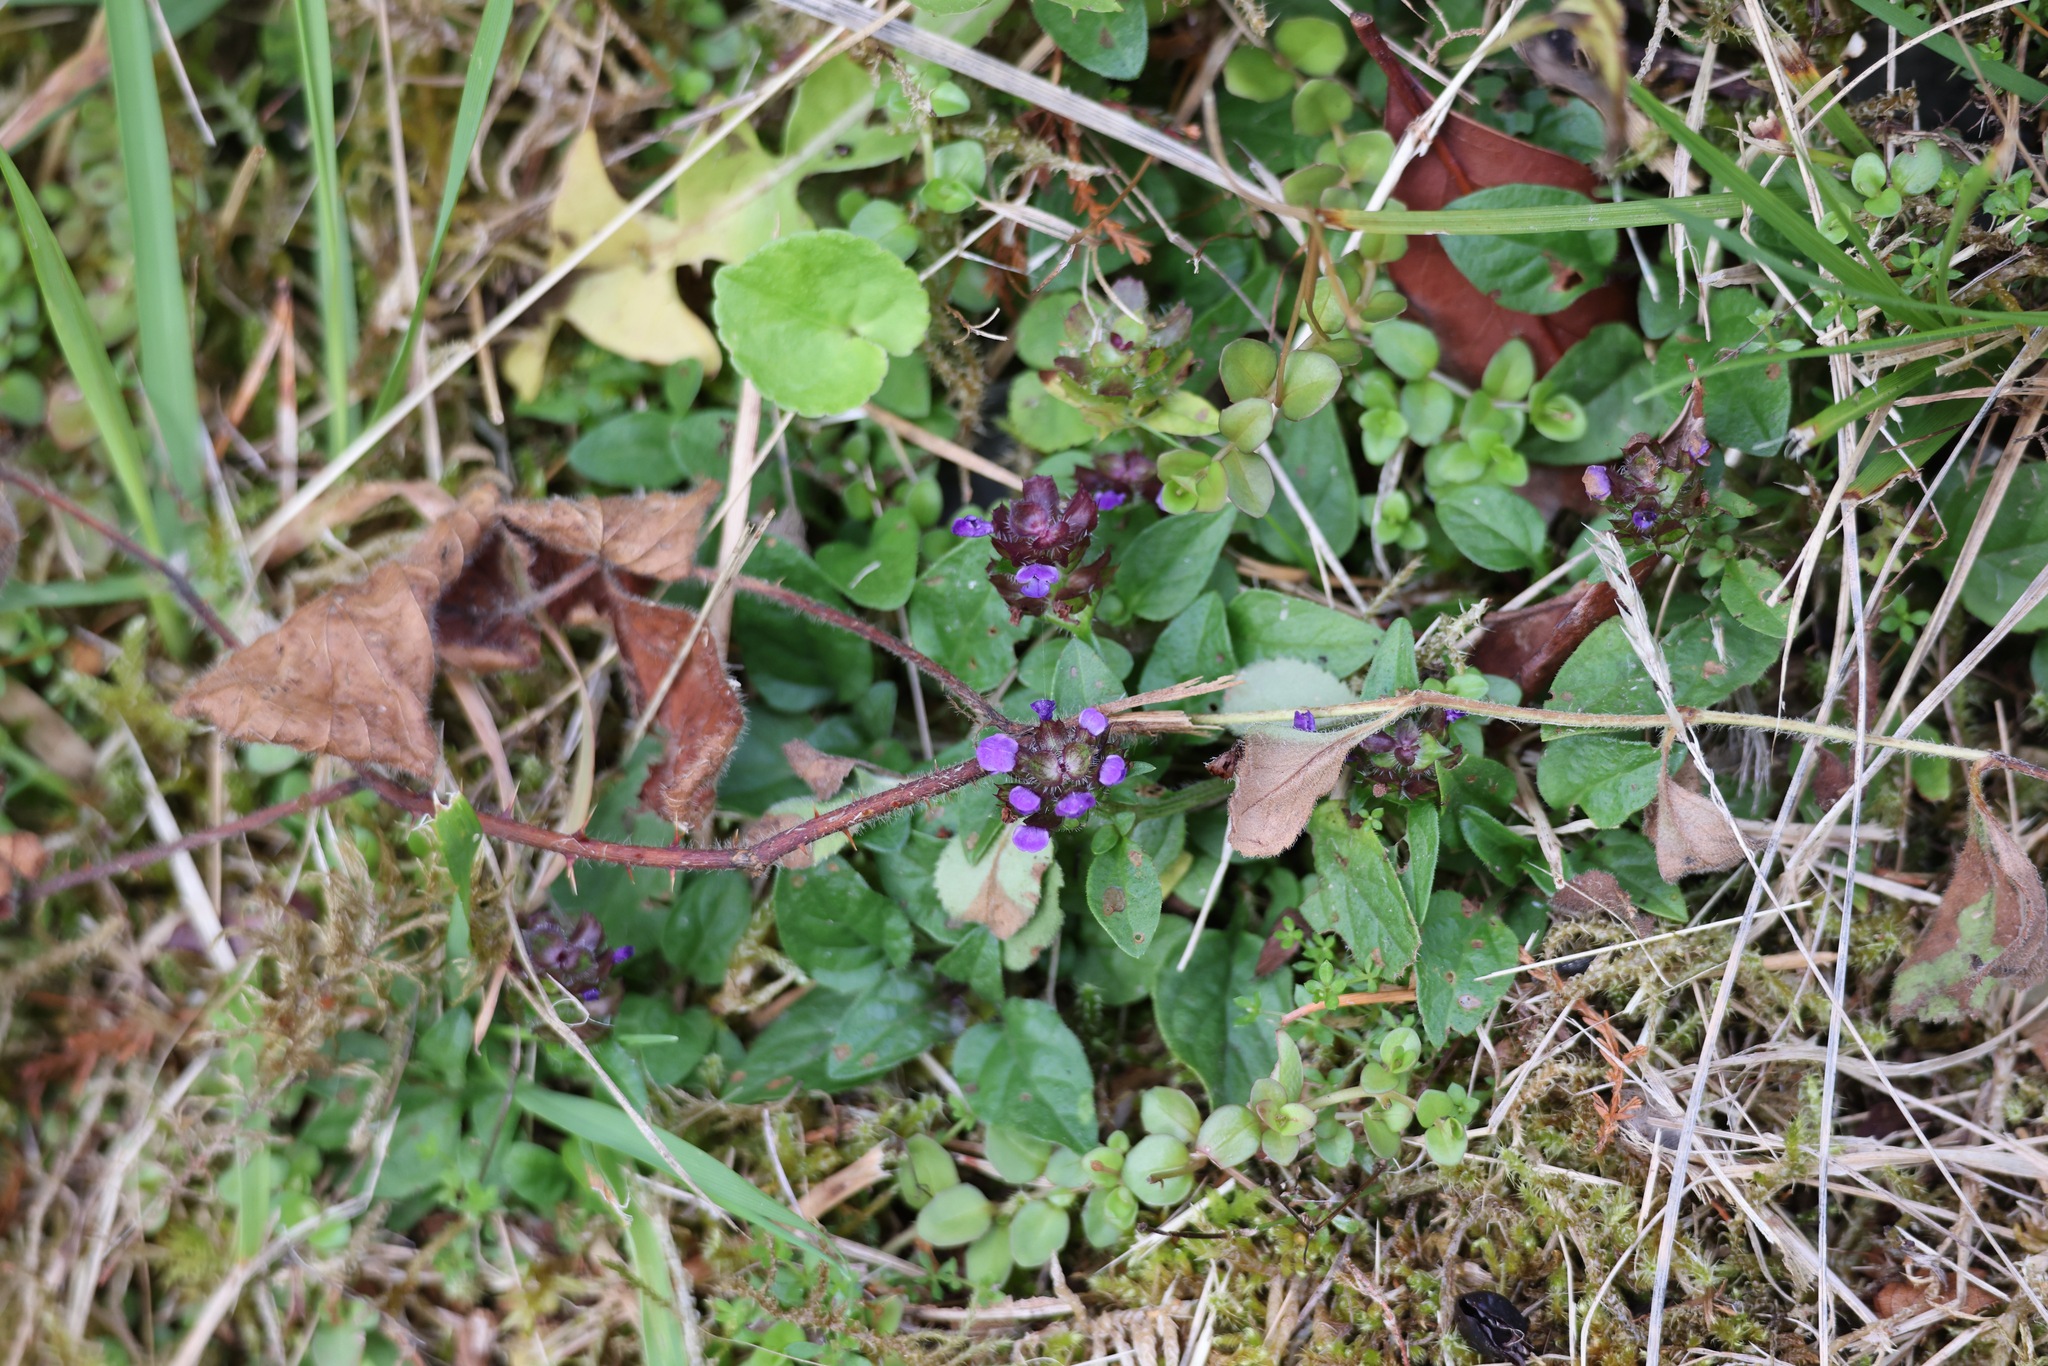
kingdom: Plantae
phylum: Tracheophyta
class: Magnoliopsida
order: Lamiales
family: Lamiaceae
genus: Prunella
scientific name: Prunella vulgaris
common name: Heal-all
